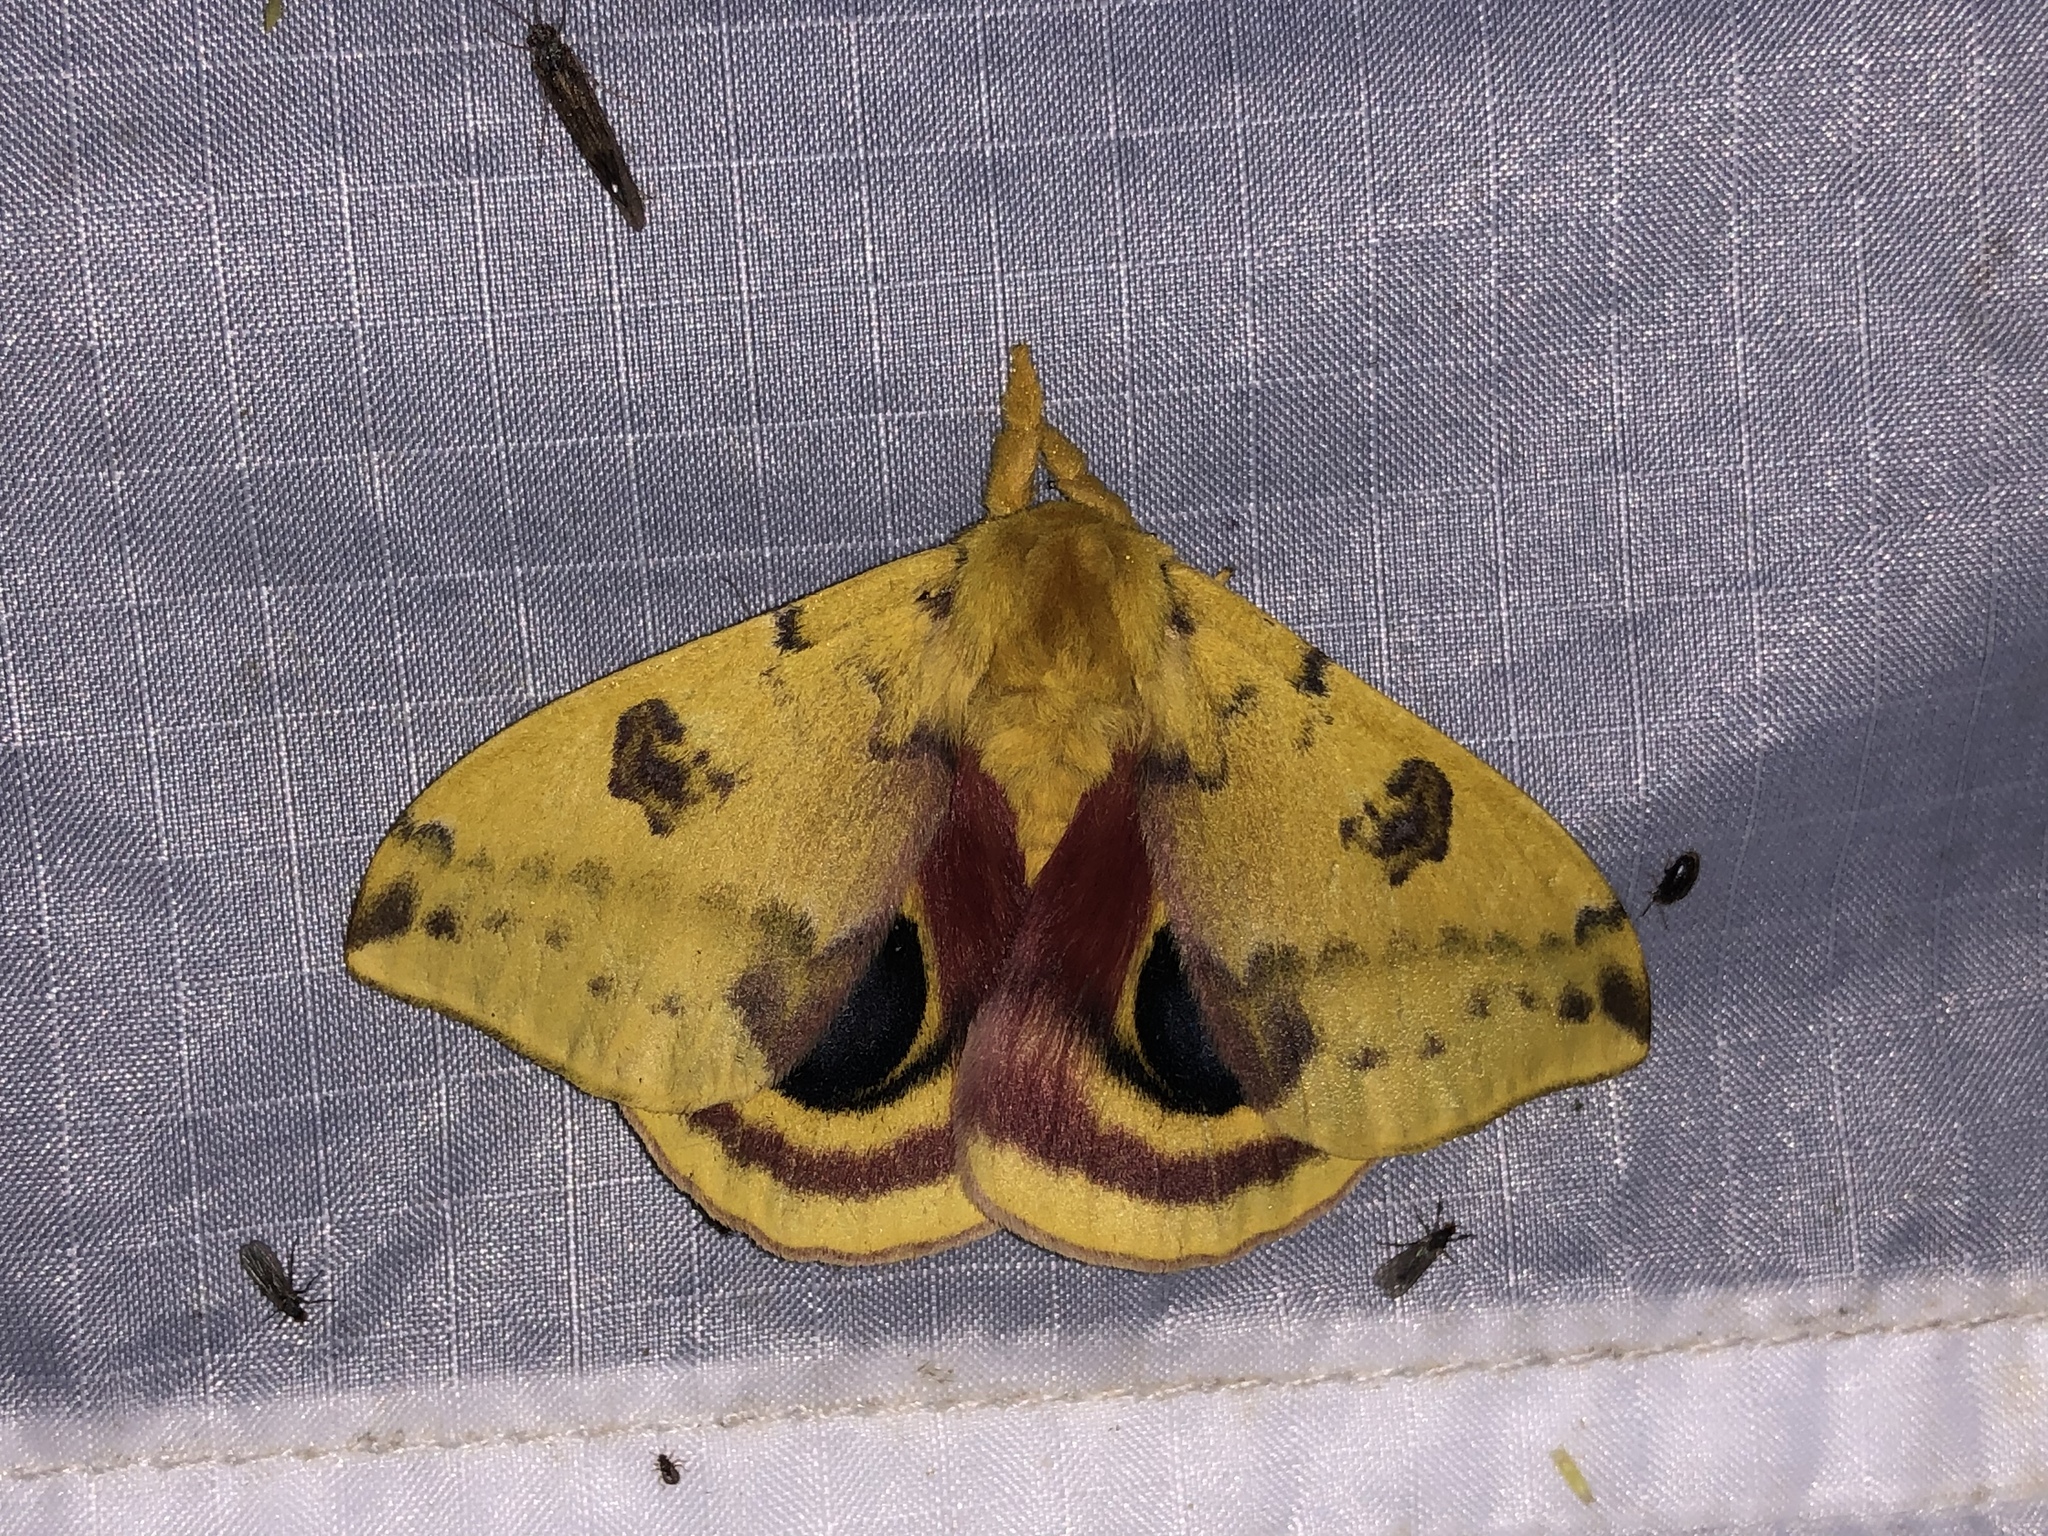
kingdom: Animalia
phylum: Arthropoda
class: Insecta
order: Lepidoptera
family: Saturniidae
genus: Automeris
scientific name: Automeris io
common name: Io moth
